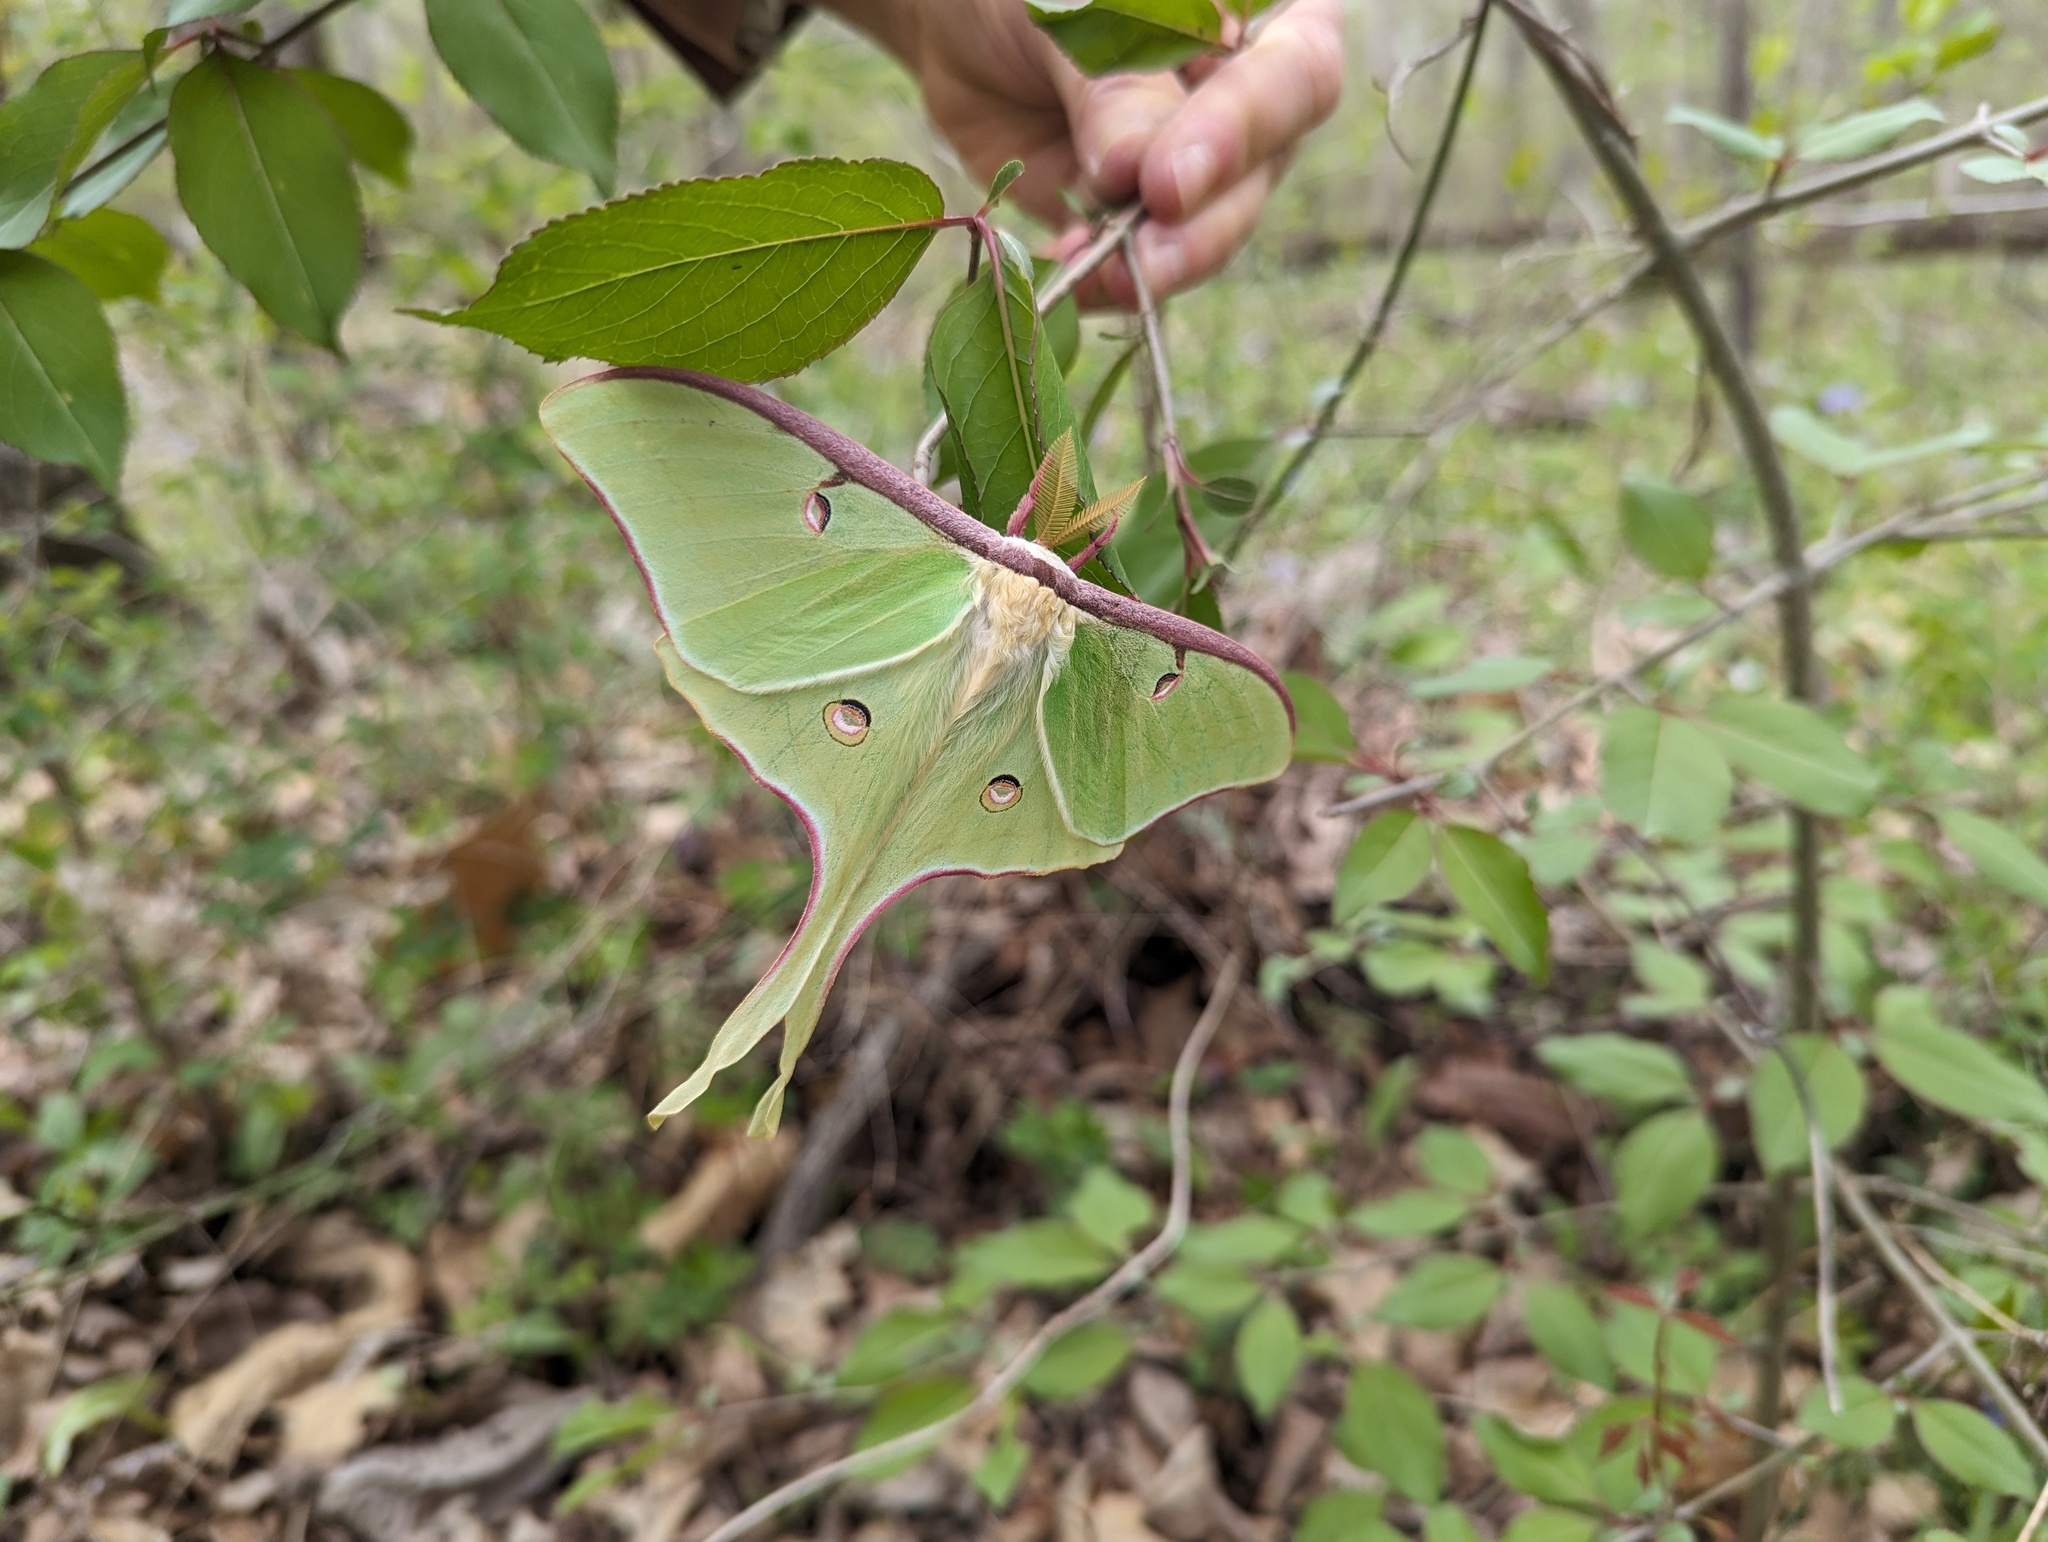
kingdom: Animalia
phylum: Arthropoda
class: Insecta
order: Lepidoptera
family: Saturniidae
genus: Actias
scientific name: Actias luna
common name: Luna moth
